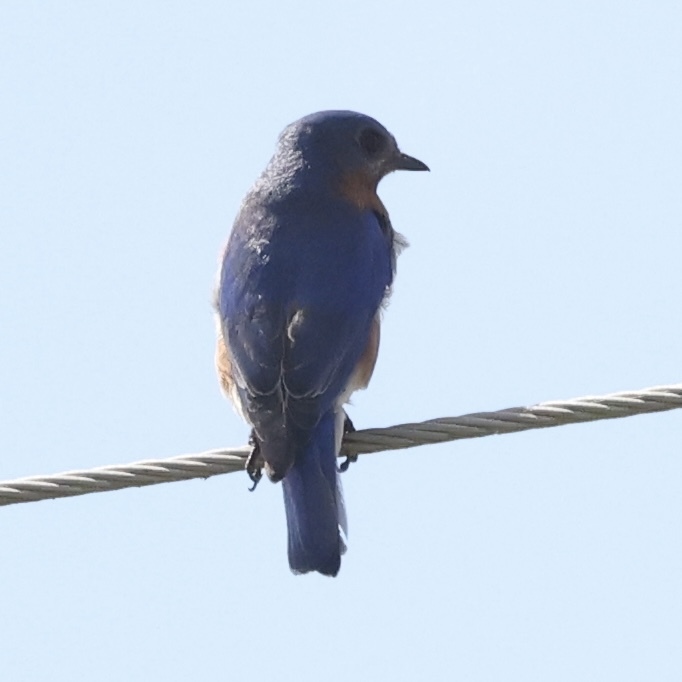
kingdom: Animalia
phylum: Chordata
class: Aves
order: Passeriformes
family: Turdidae
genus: Sialia
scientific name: Sialia sialis
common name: Eastern bluebird
